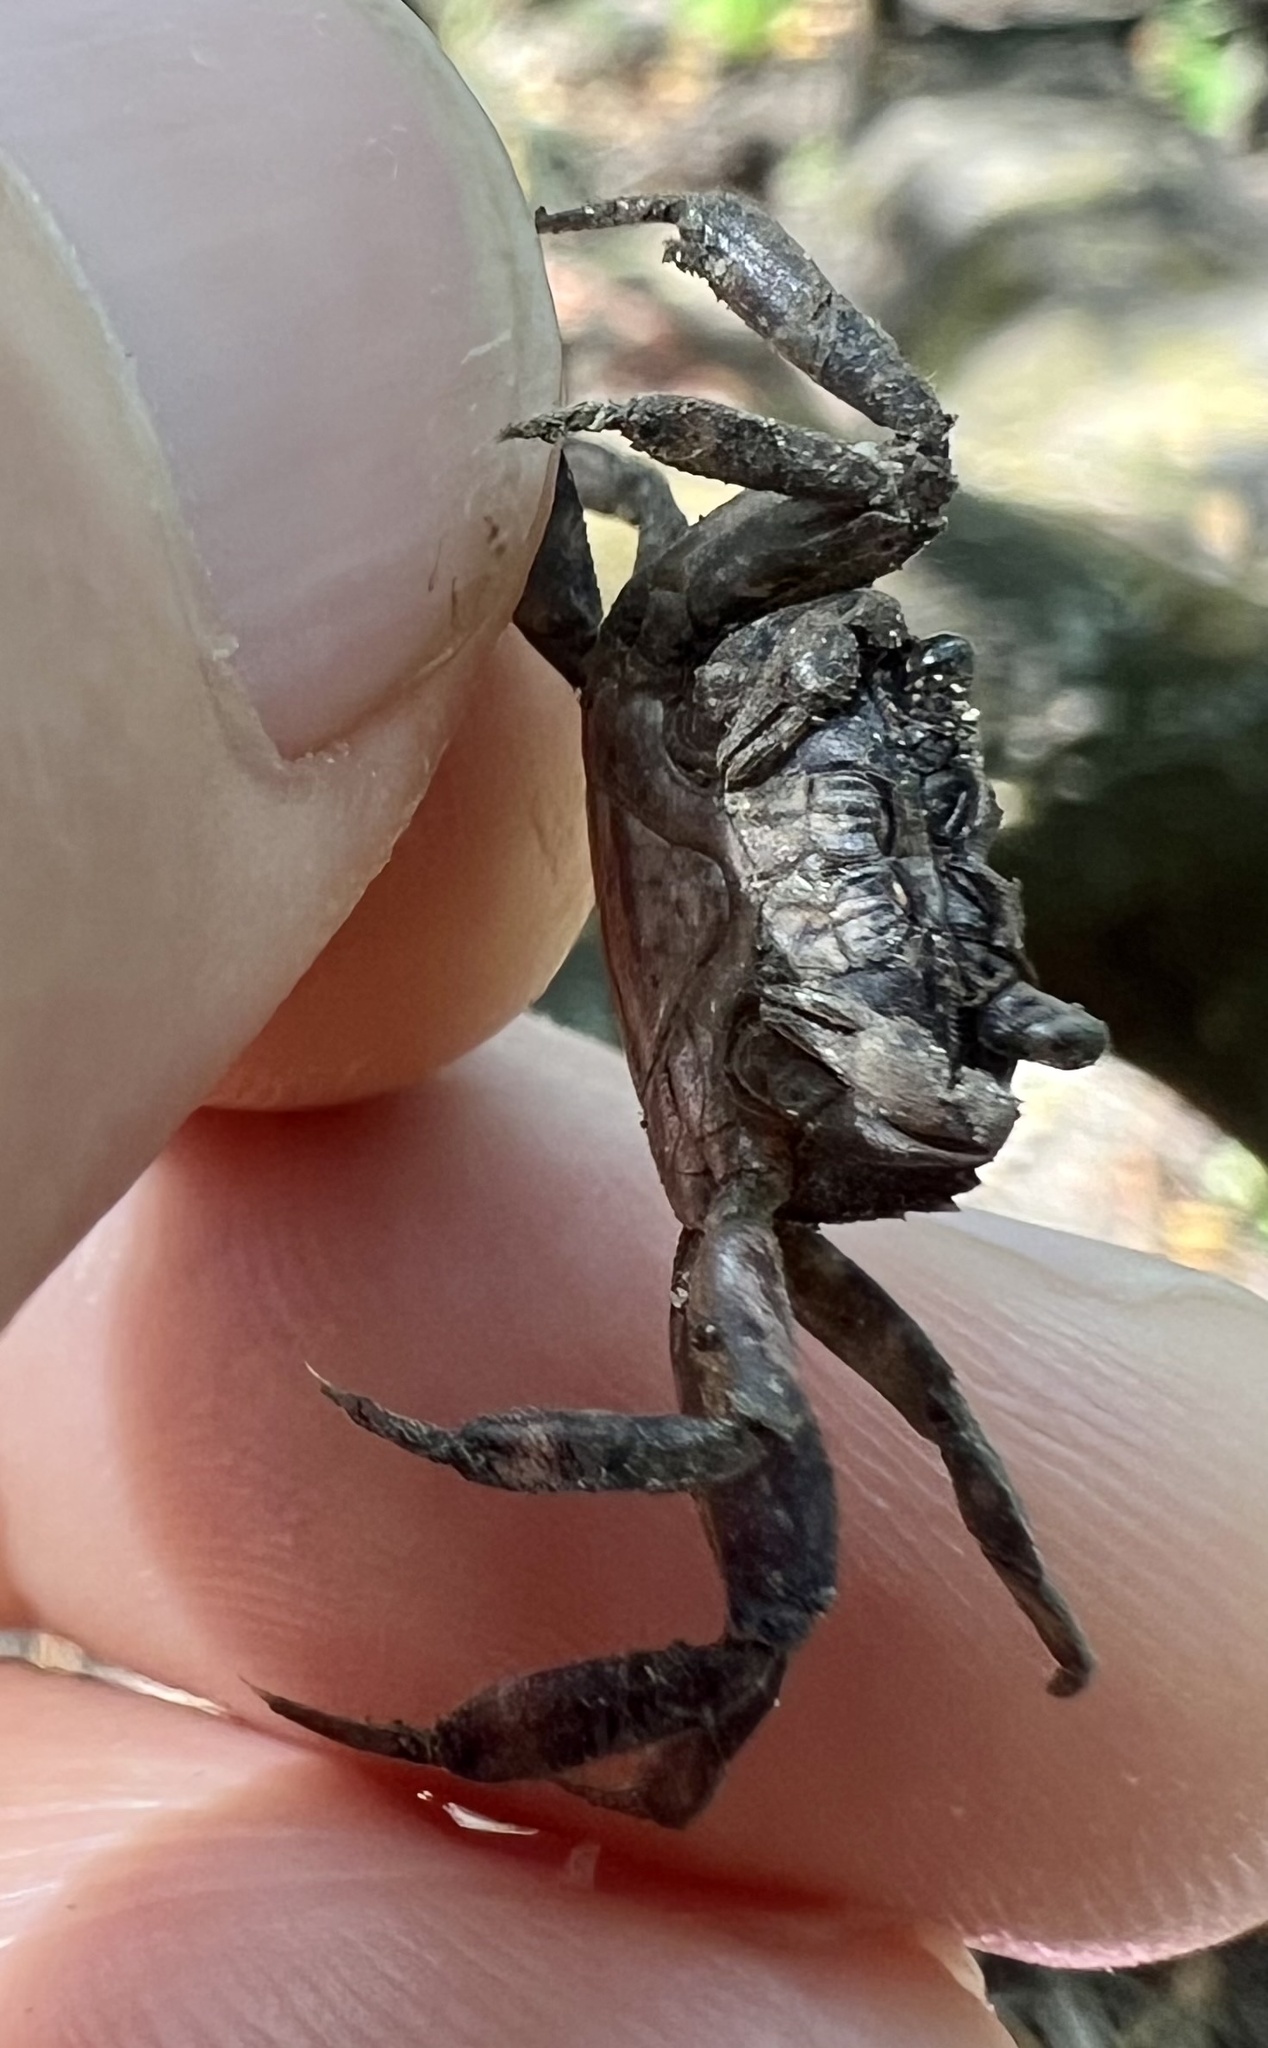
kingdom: Animalia
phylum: Arthropoda
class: Malacostraca
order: Decapoda
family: Glyptograpsidae
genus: Glyptograpsus
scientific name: Glyptograpsus impressus
